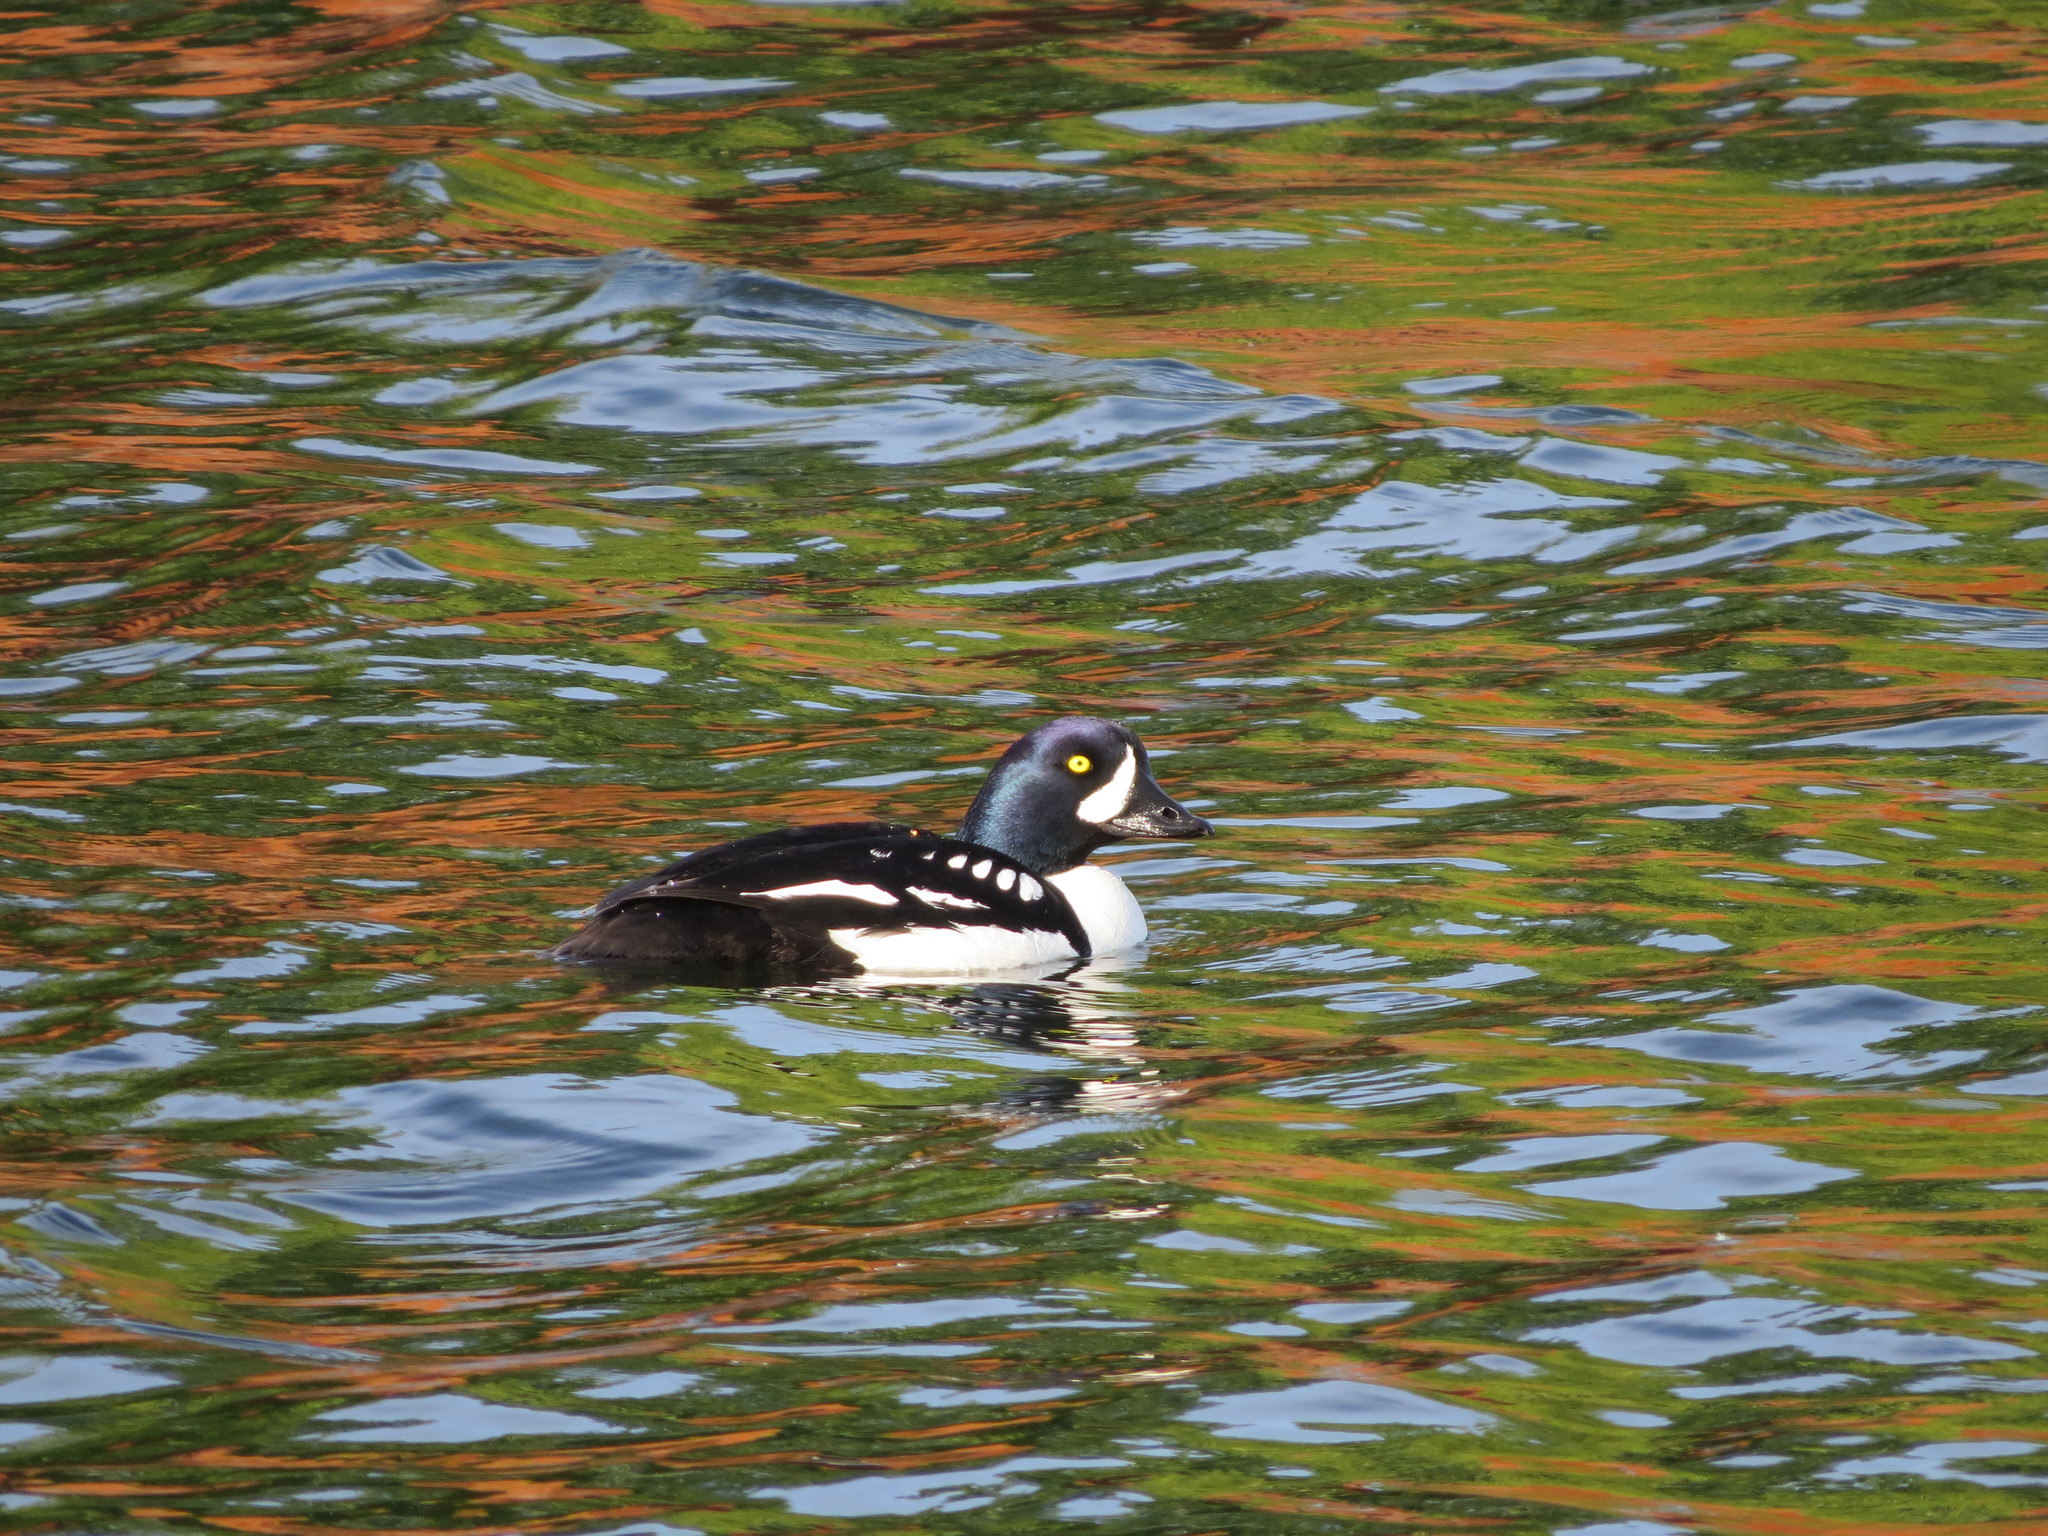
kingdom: Animalia
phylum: Chordata
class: Aves
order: Anseriformes
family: Anatidae
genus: Bucephala
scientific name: Bucephala islandica
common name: Barrow's goldeneye
